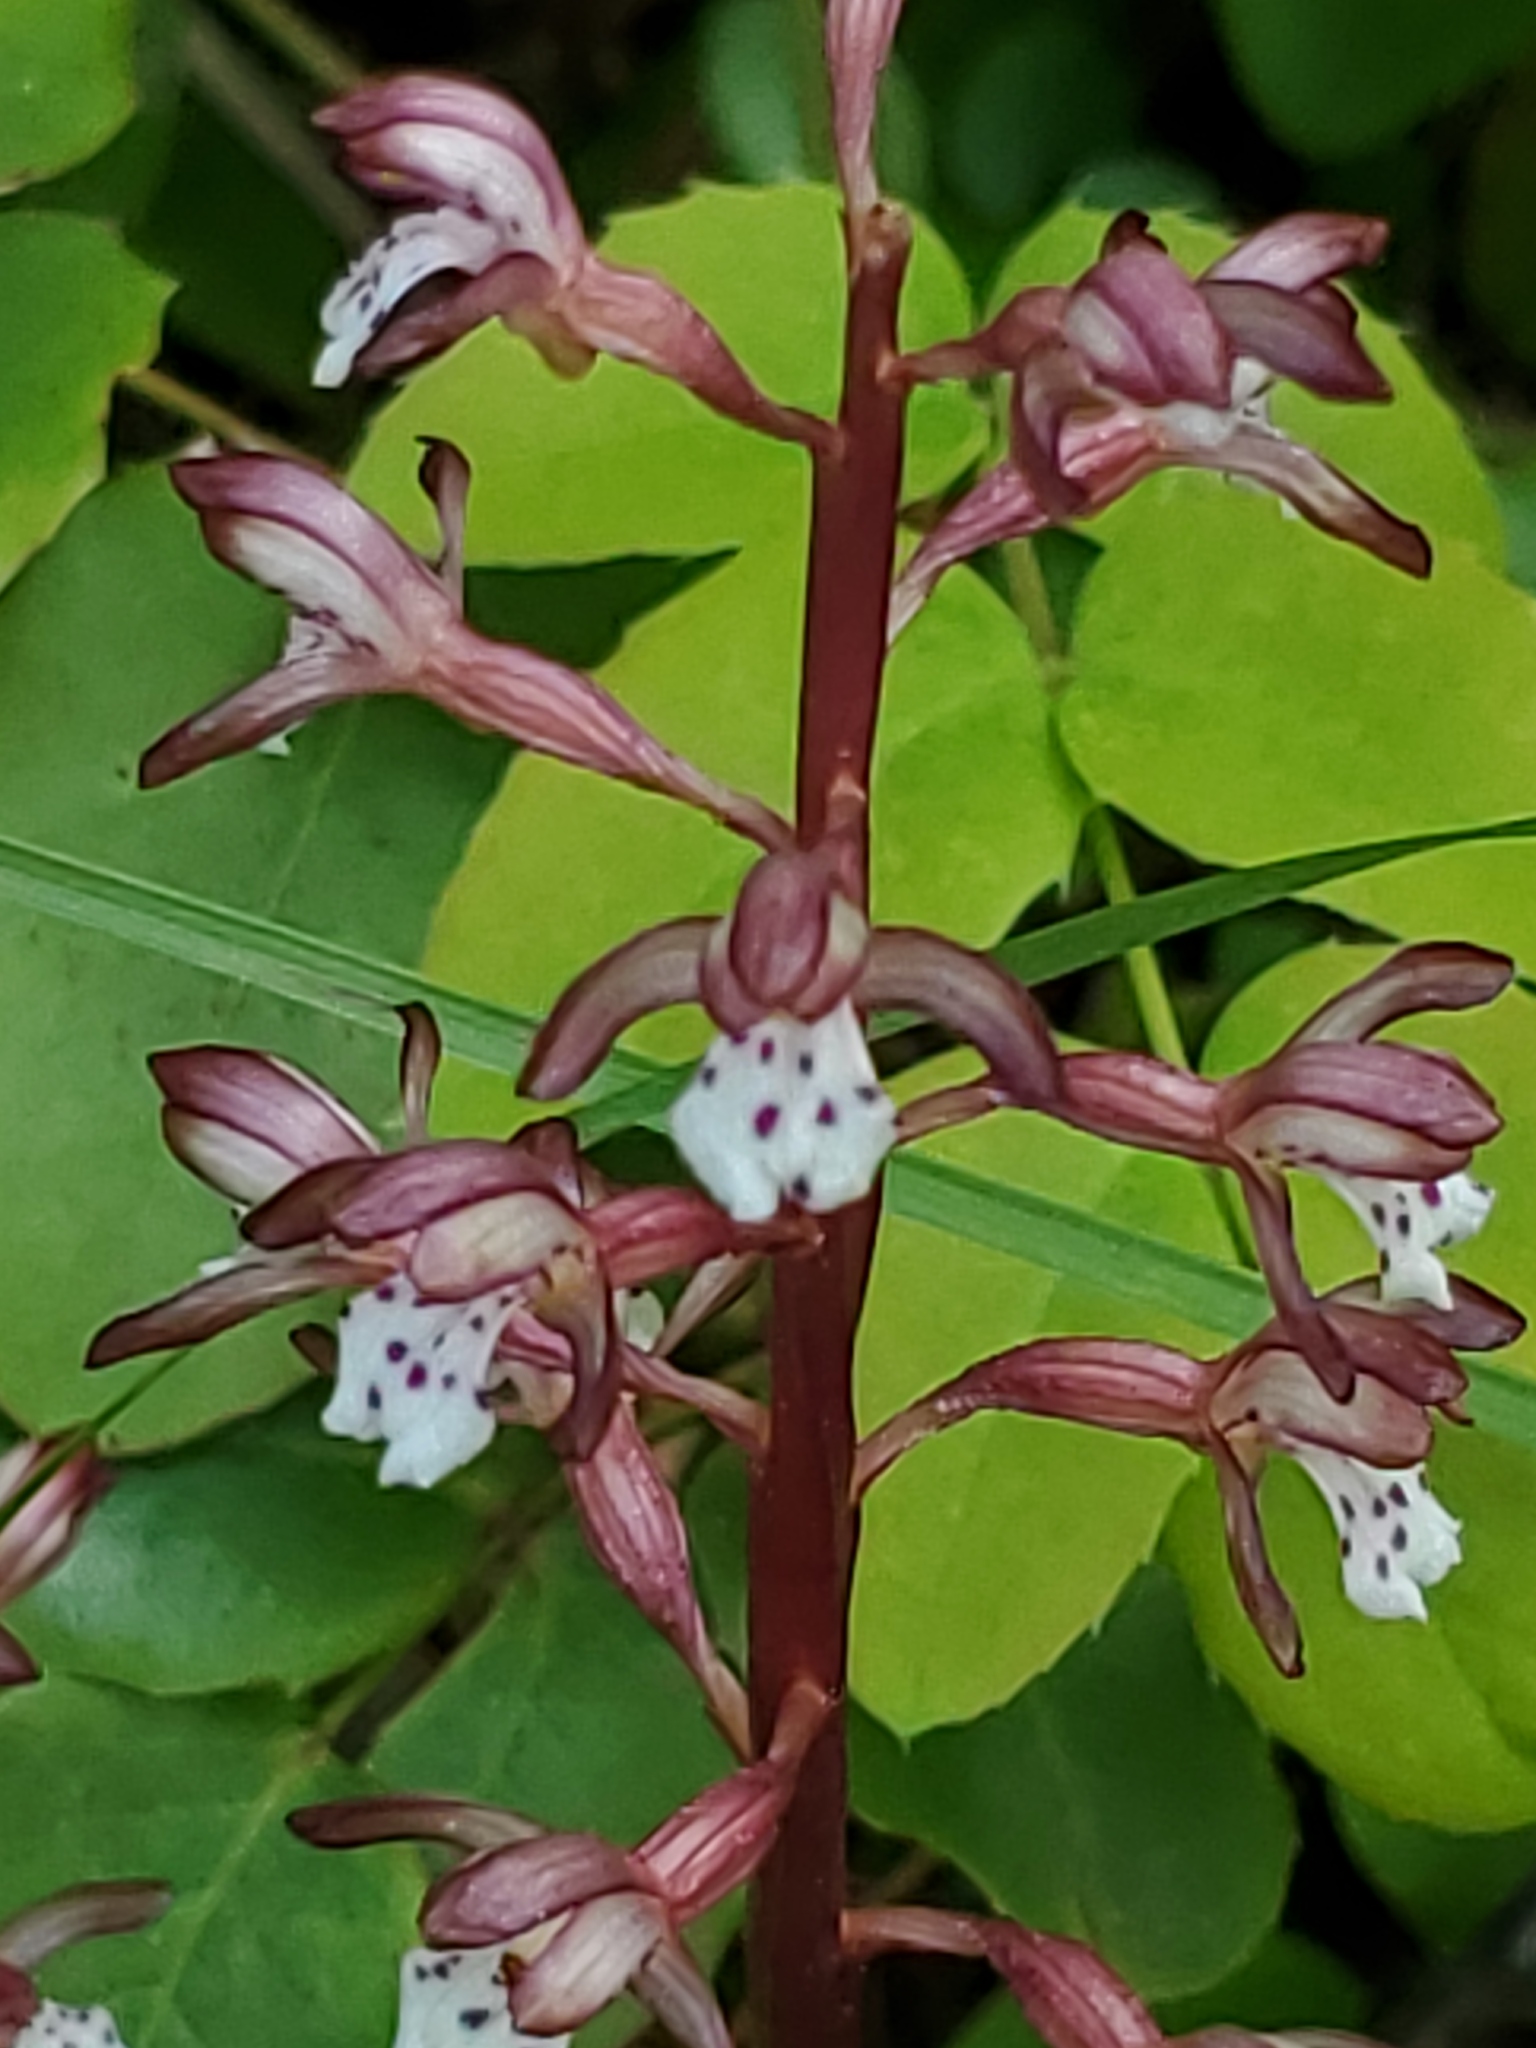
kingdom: Plantae
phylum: Tracheophyta
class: Liliopsida
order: Asparagales
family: Orchidaceae
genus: Corallorhiza
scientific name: Corallorhiza maculata
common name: Spotted coralroot
